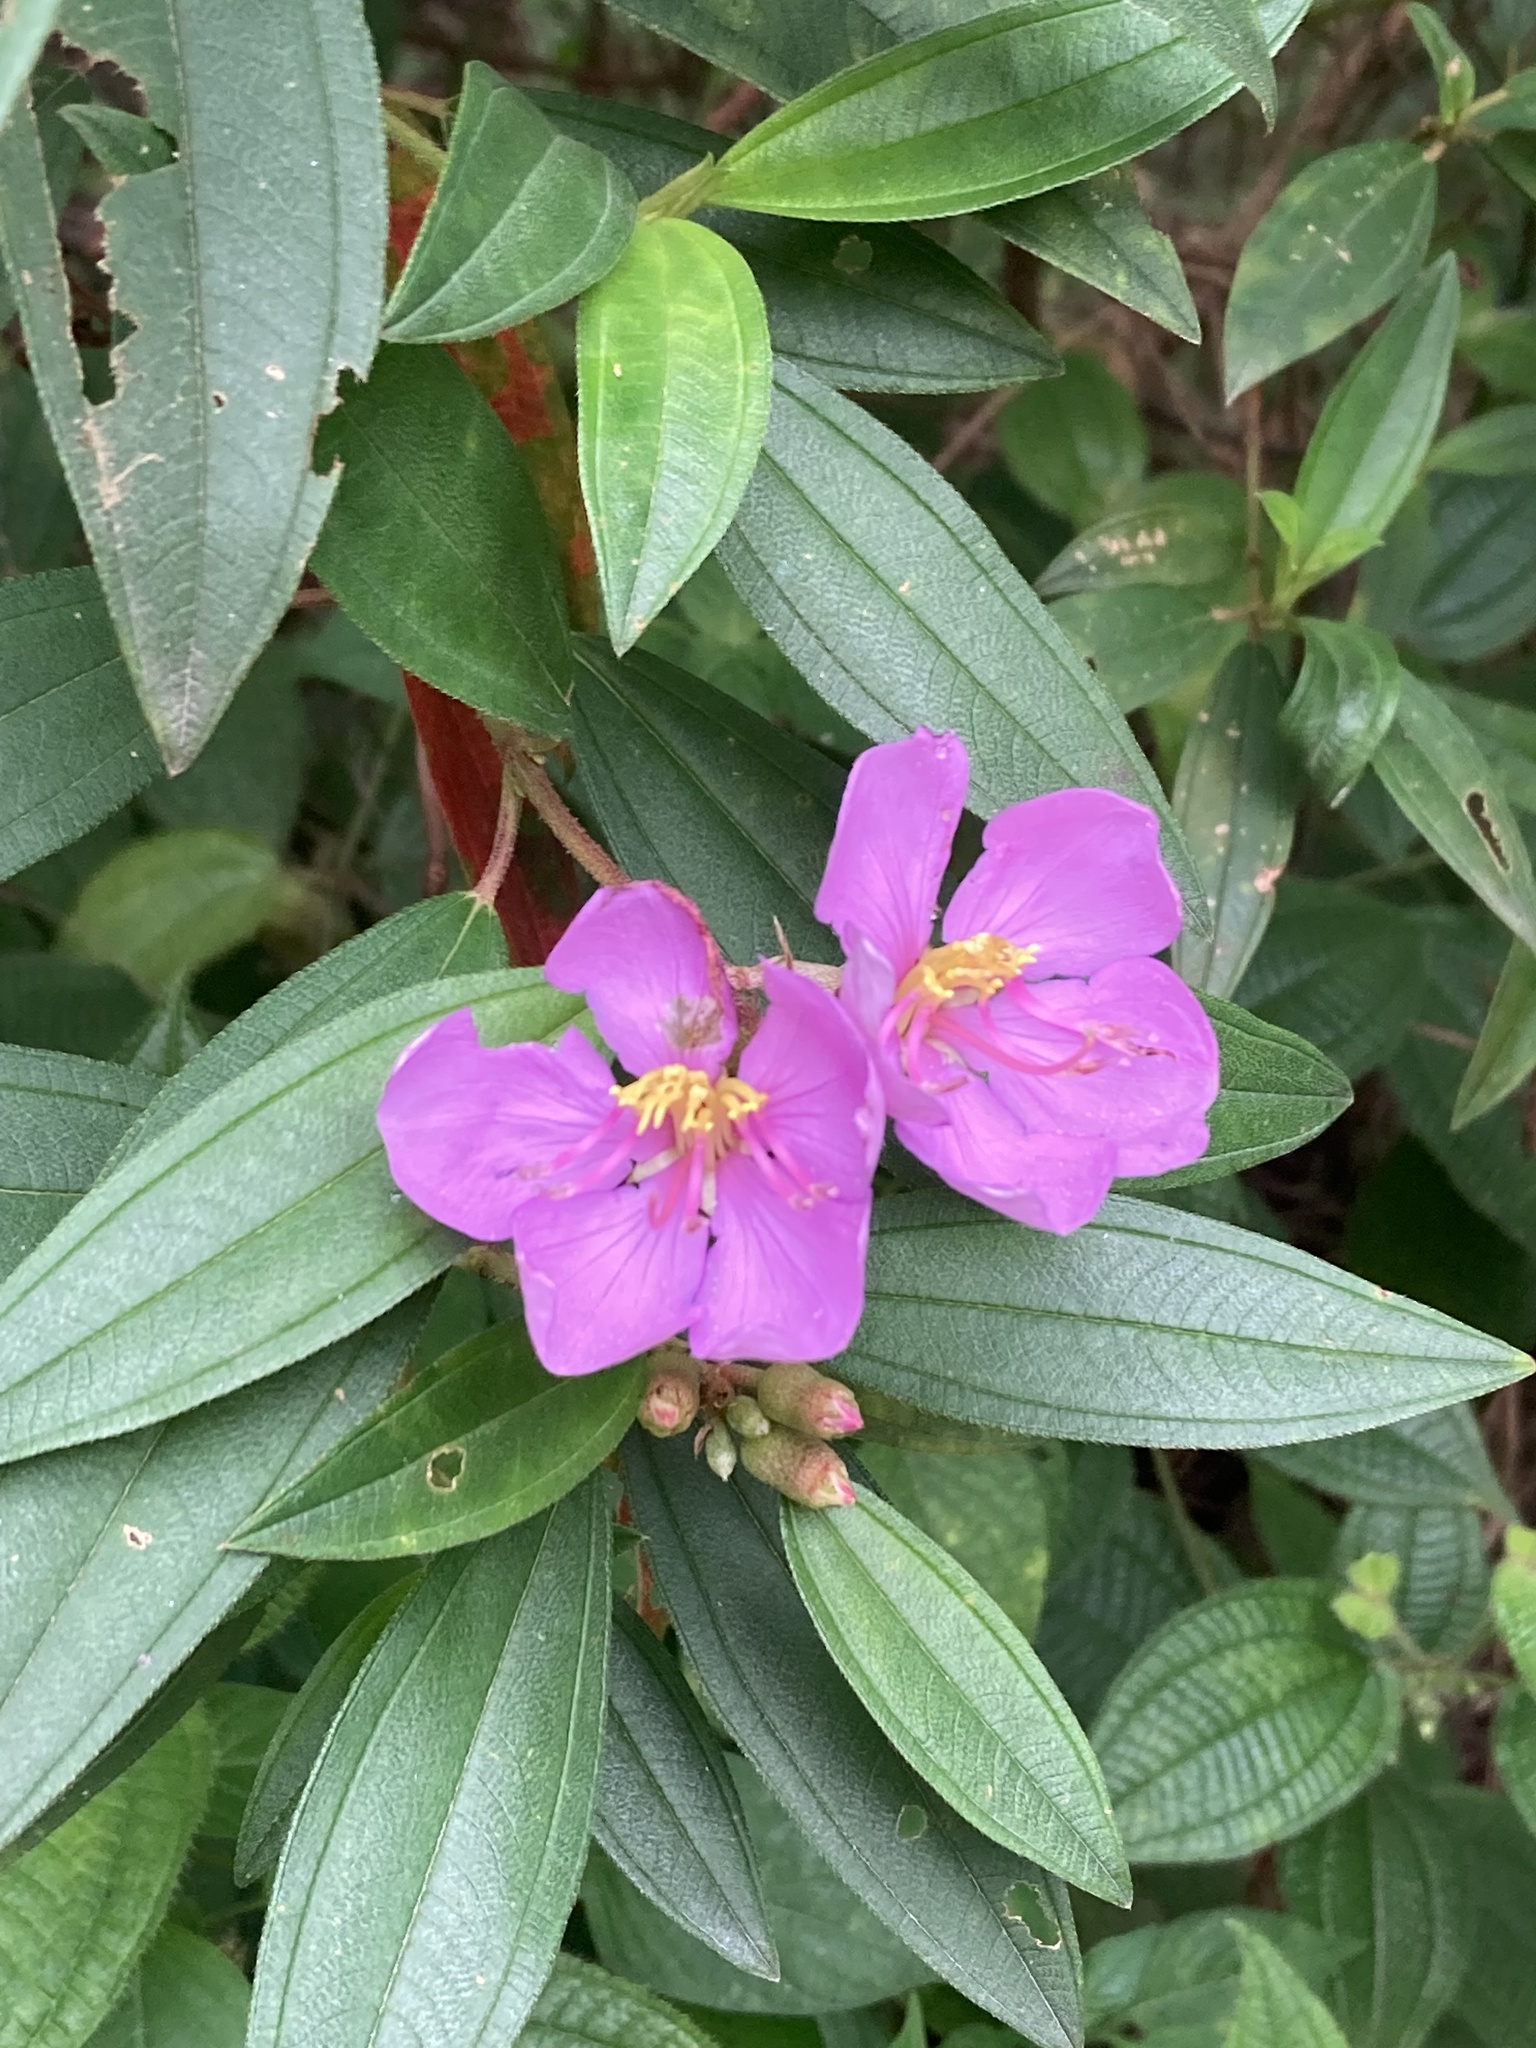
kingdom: Plantae
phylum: Tracheophyta
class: Magnoliopsida
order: Myrtales
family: Melastomataceae
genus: Melastoma
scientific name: Melastoma malabathricum
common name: Indian-rhododendron
